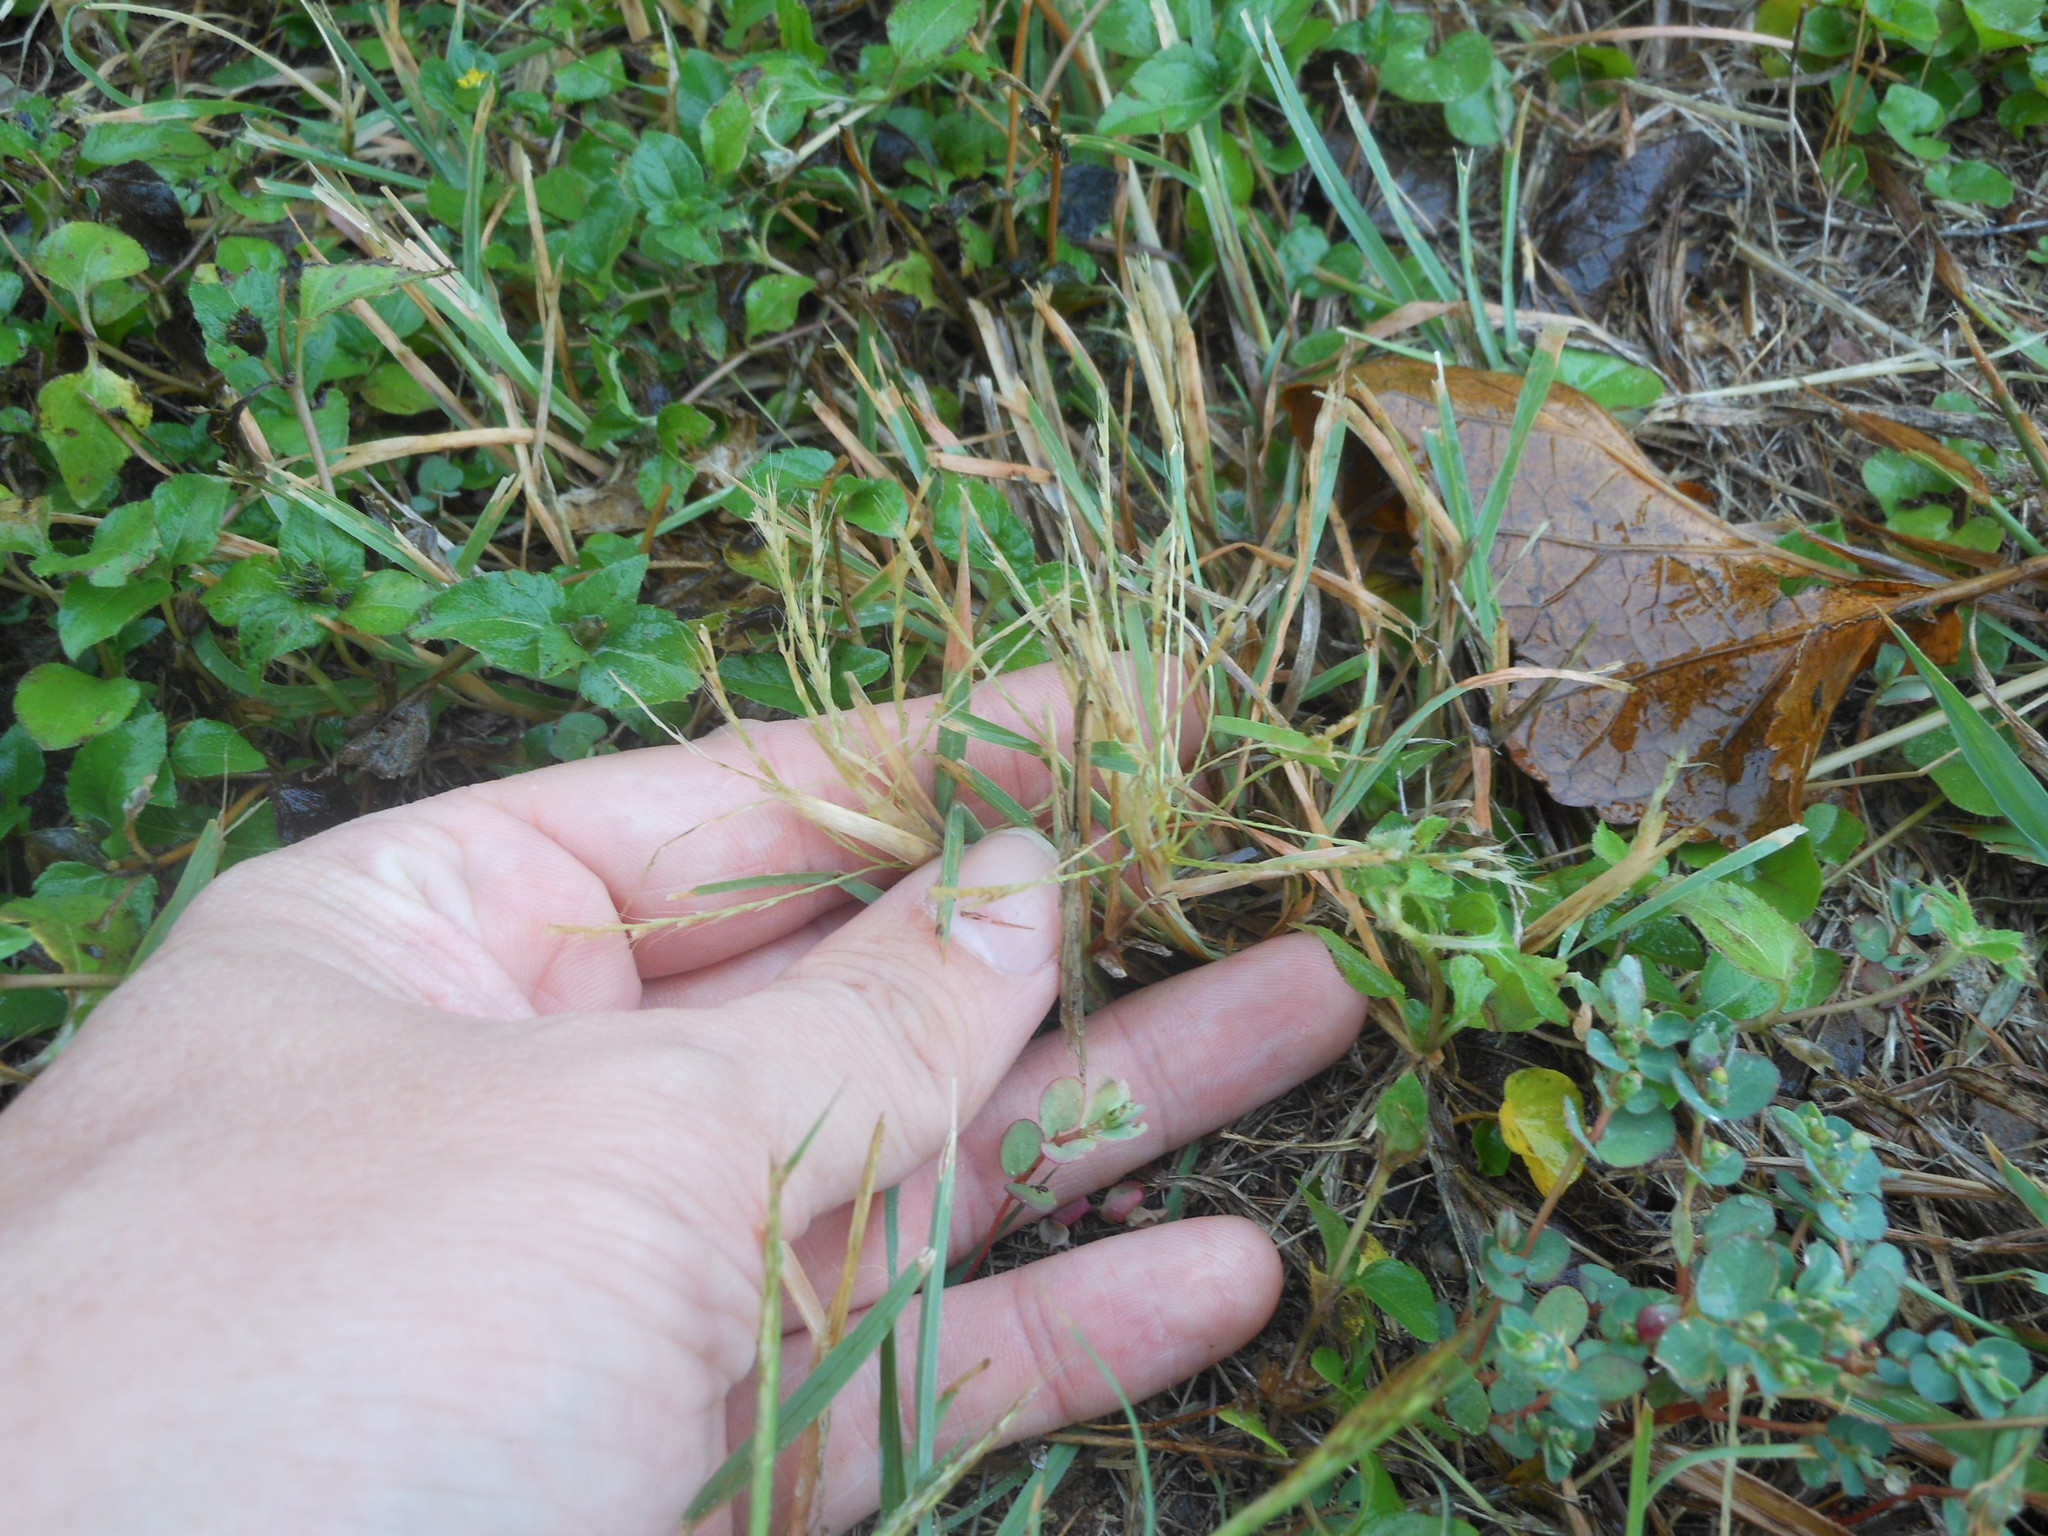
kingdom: Plantae
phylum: Tracheophyta
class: Liliopsida
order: Poales
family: Poaceae
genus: Chloris
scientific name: Chloris verticillata
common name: Tumble windmill grass
